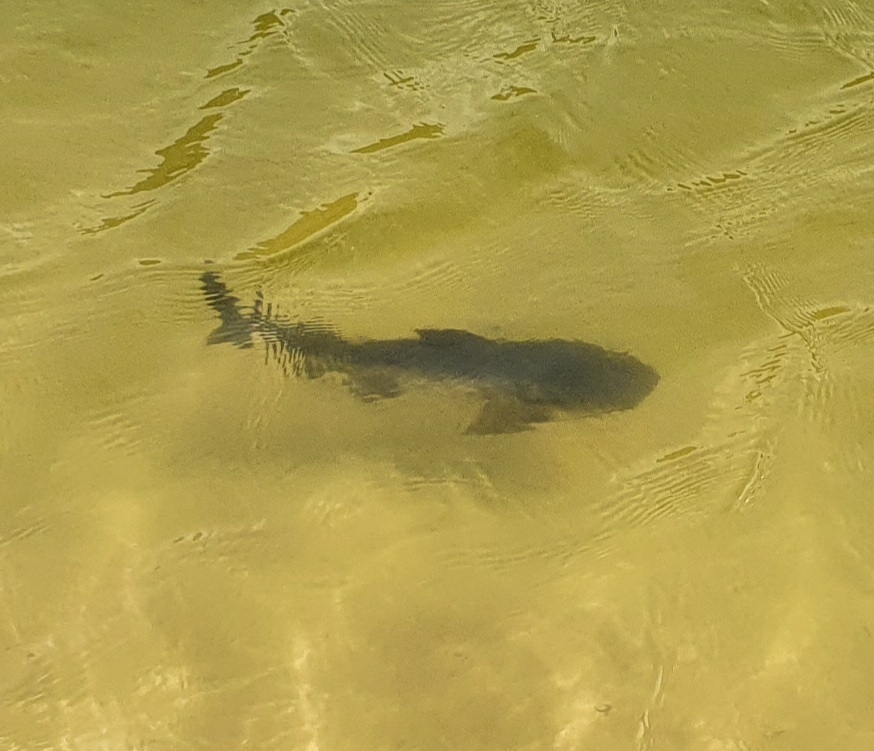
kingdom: Animalia
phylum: Chordata
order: Siluriformes
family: Ariidae
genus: Neoarius
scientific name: Neoarius graeffei
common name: Blue salmon catfish
